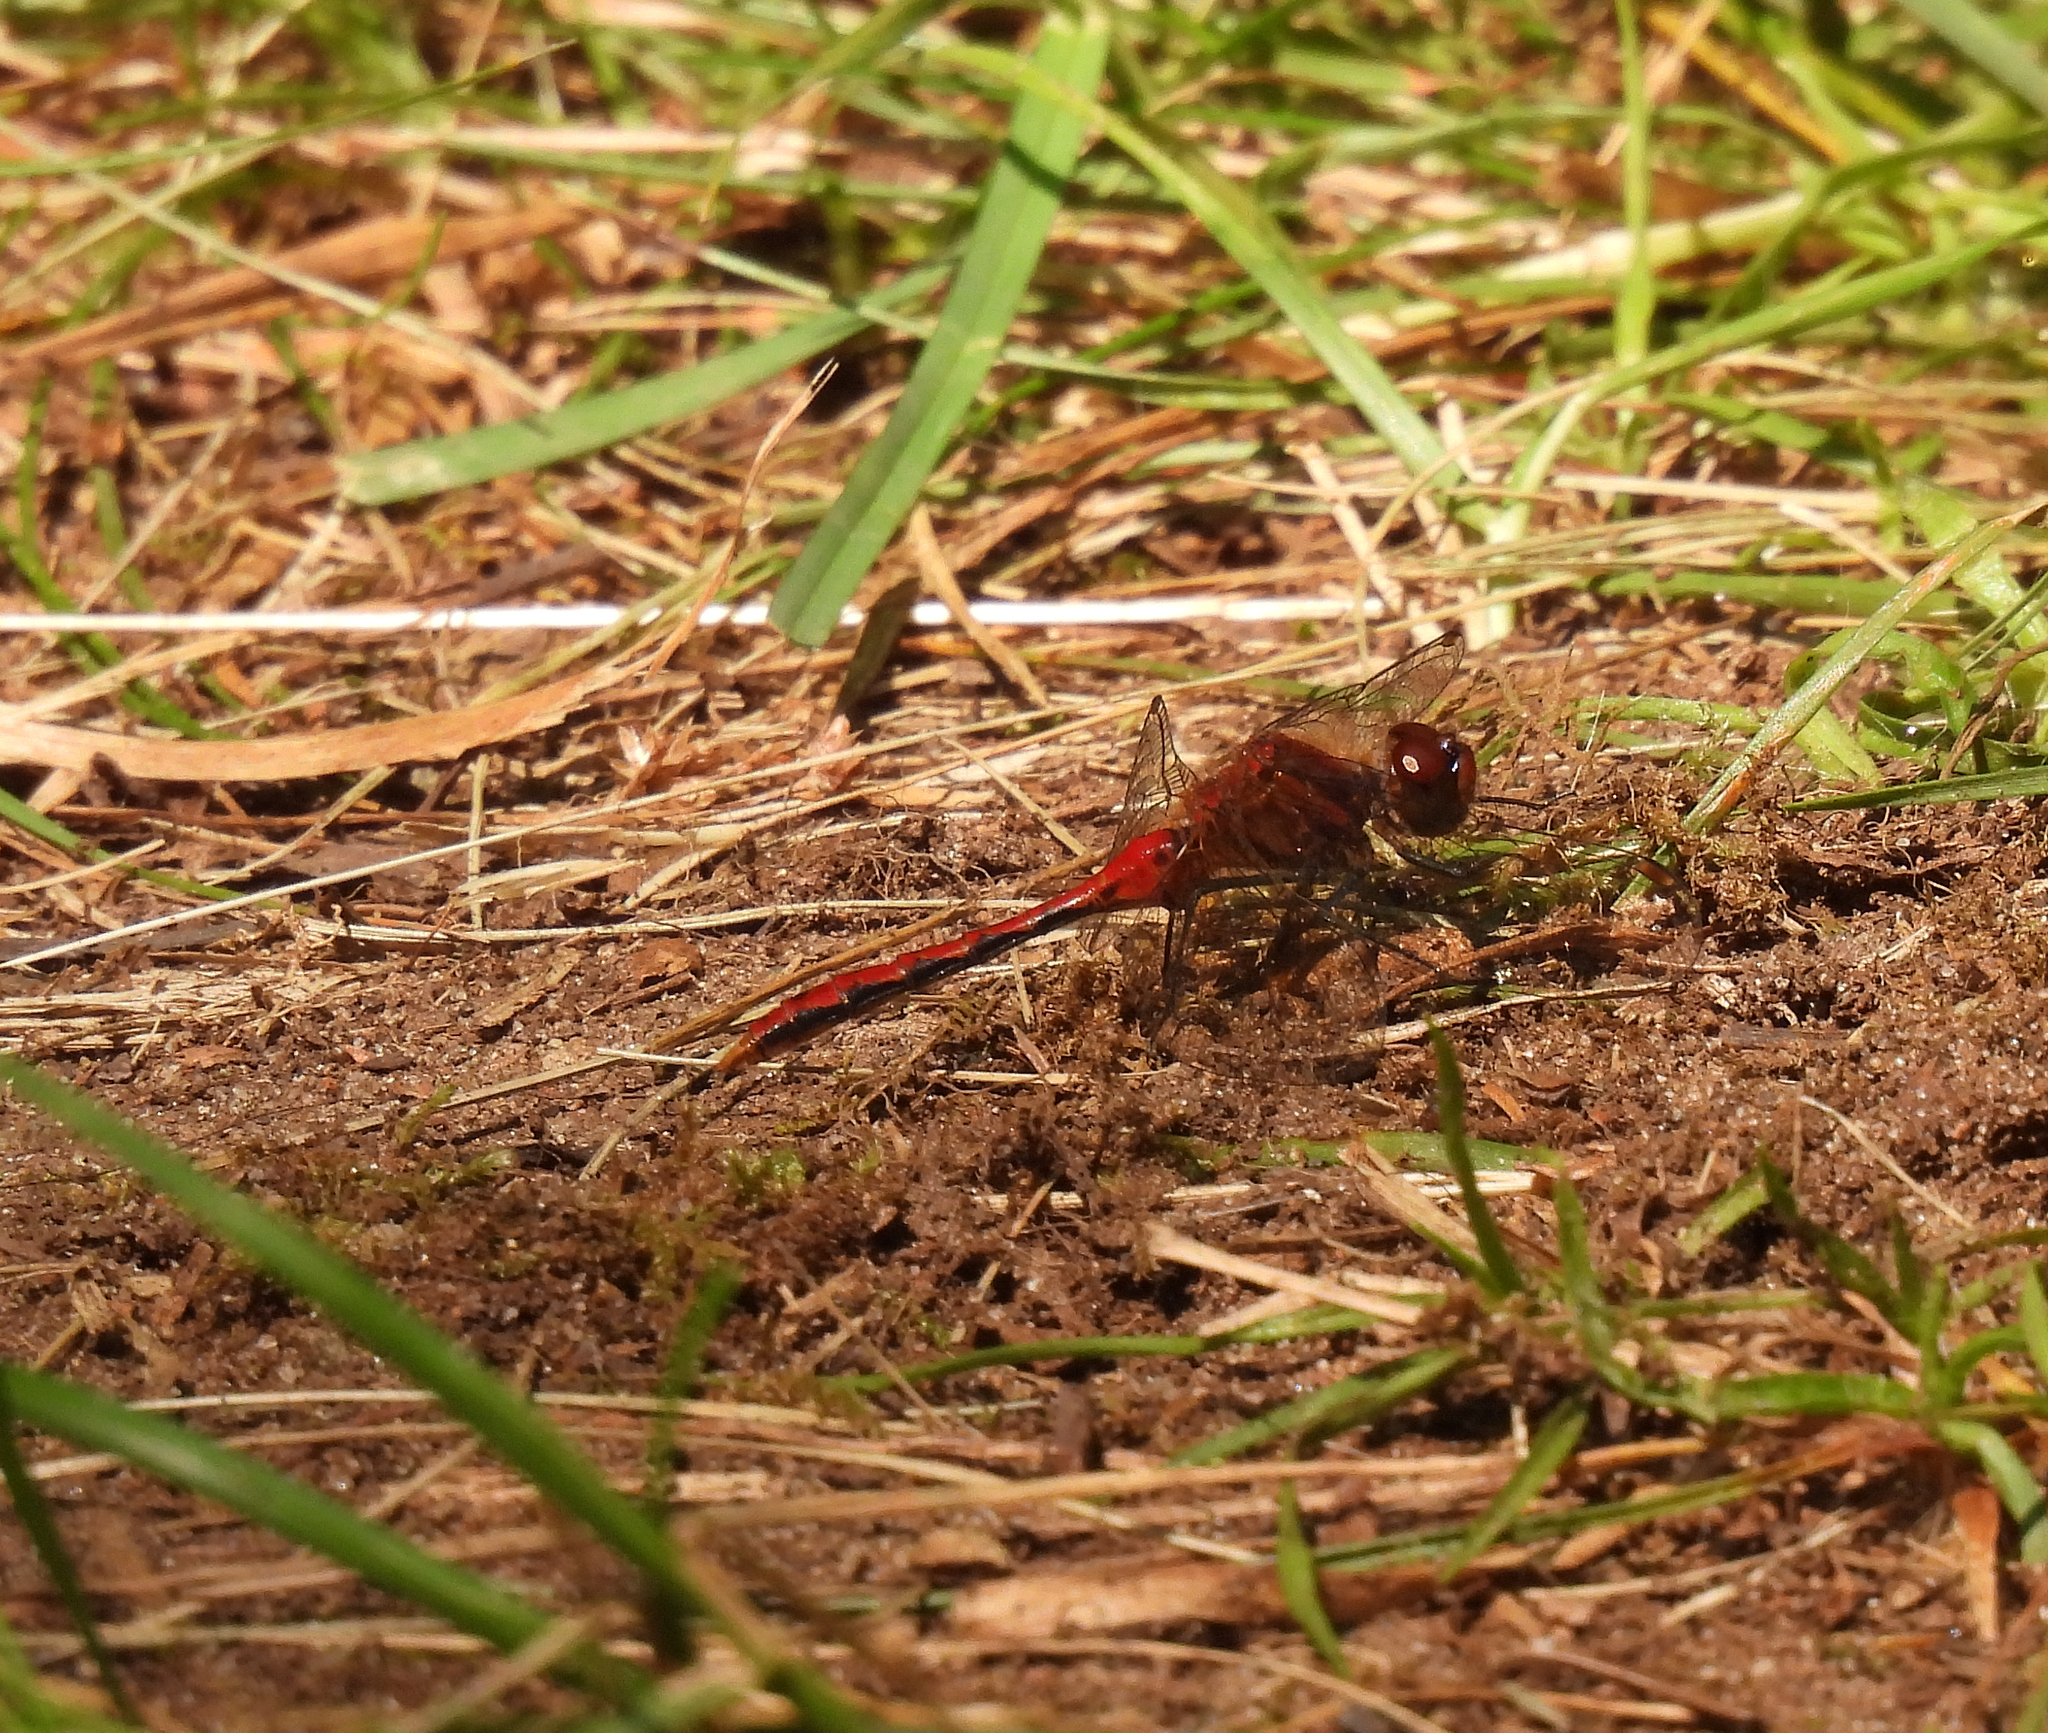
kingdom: Animalia
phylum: Arthropoda
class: Insecta
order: Odonata
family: Libellulidae
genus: Sympetrum
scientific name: Sympetrum internum
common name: Cherry-faced meadowhawk
